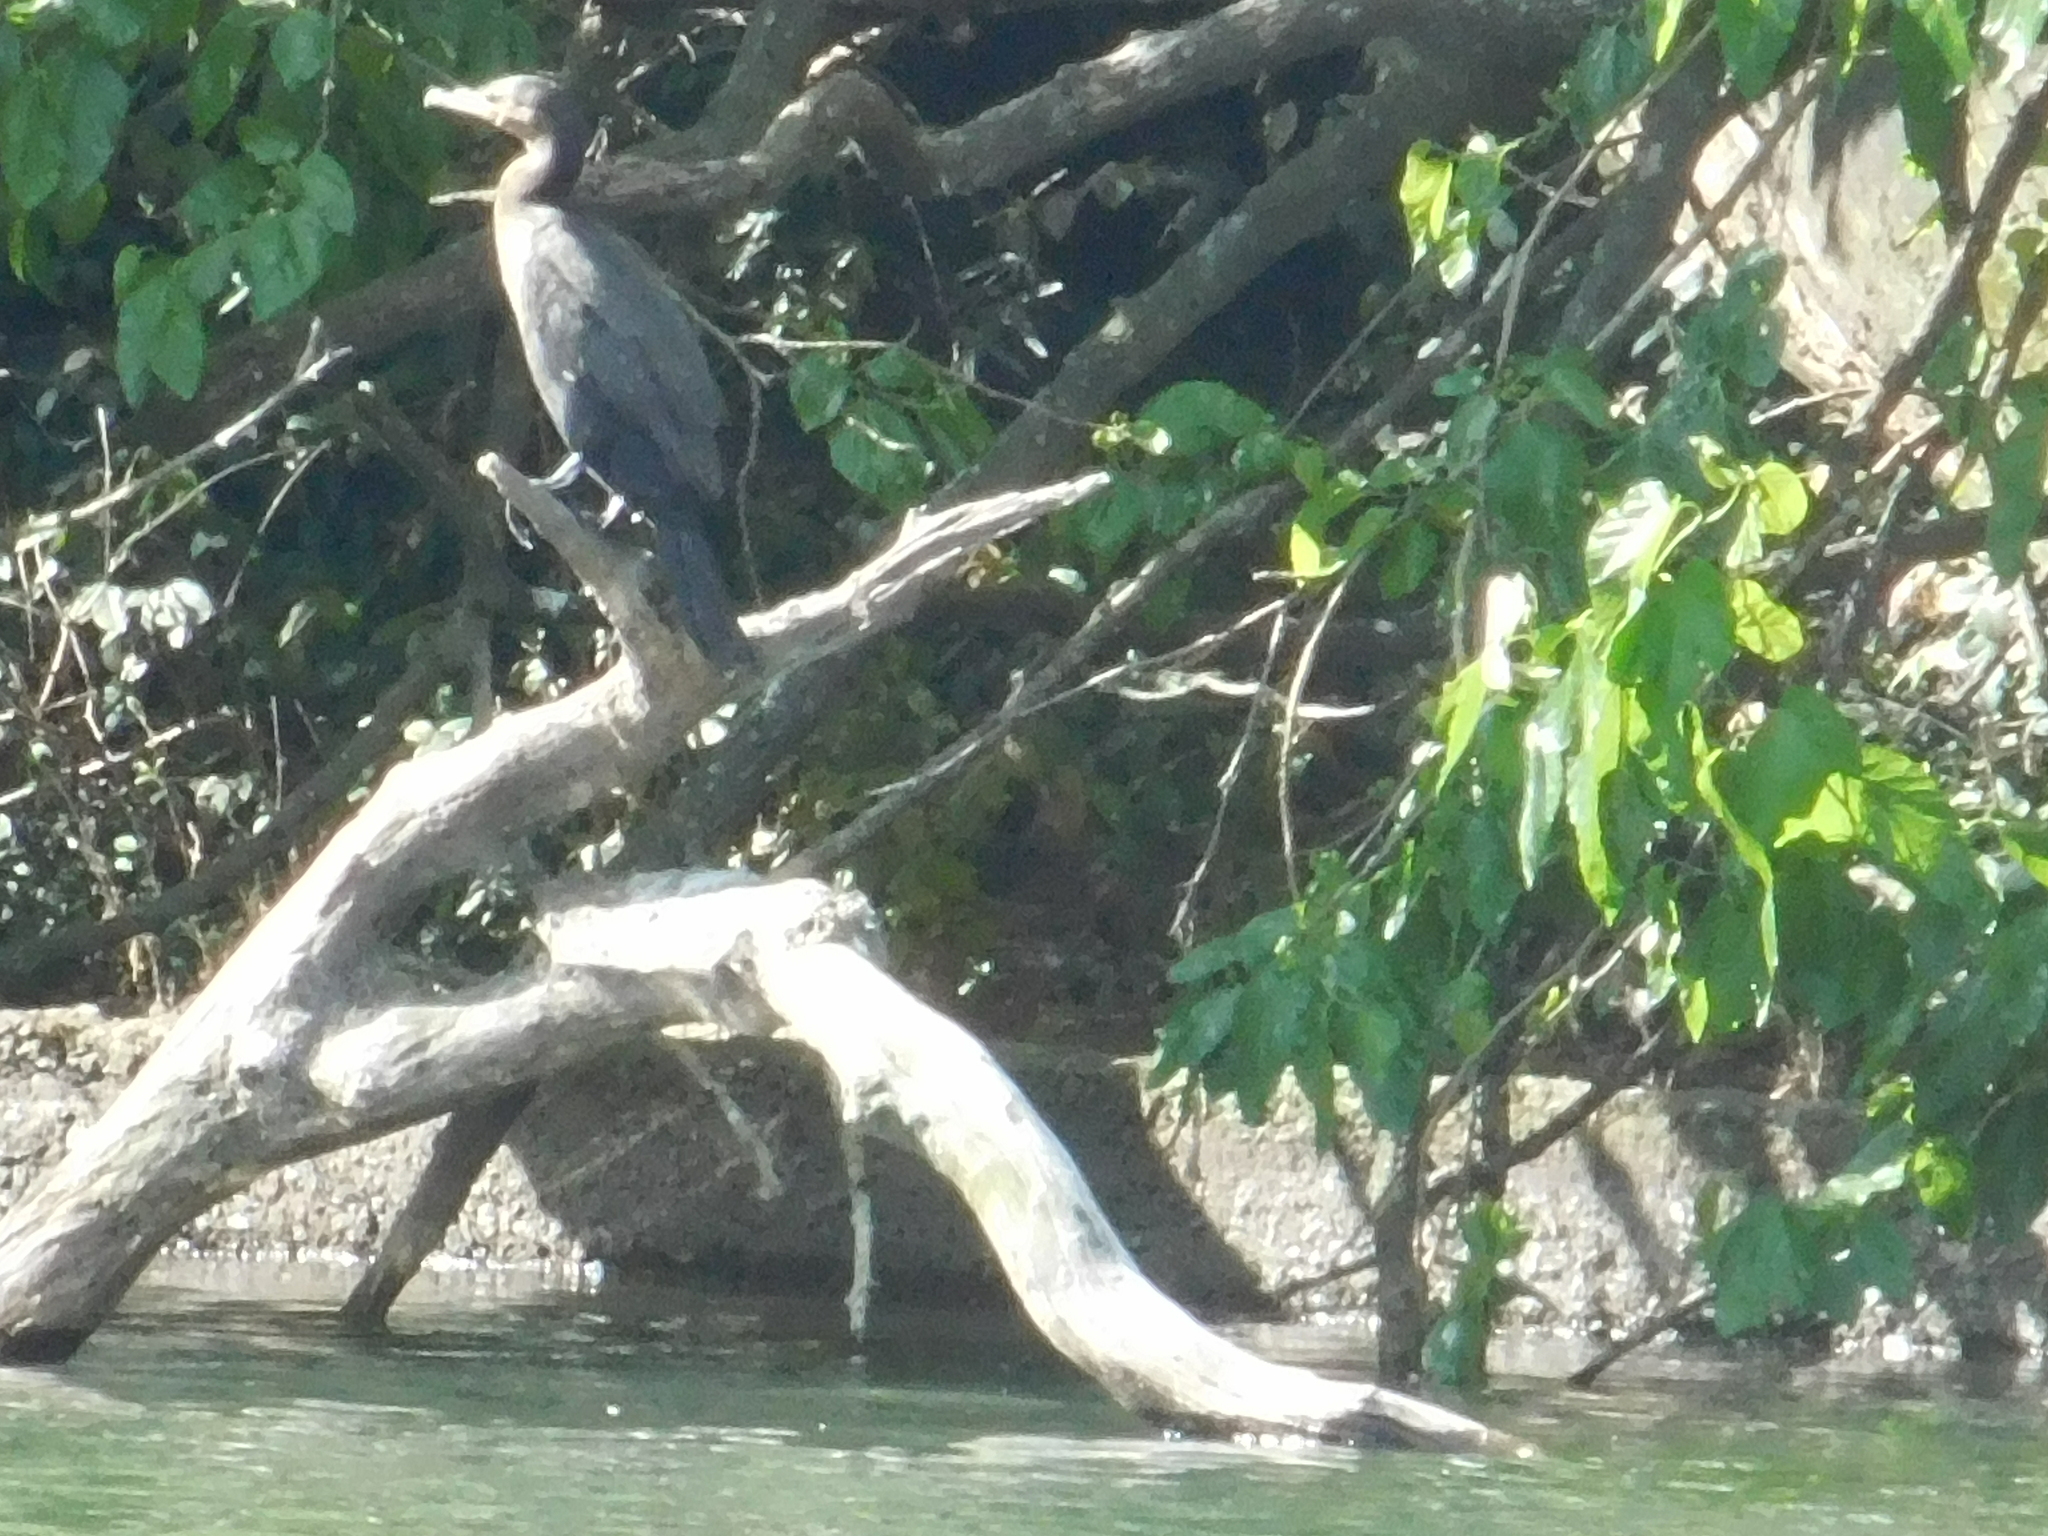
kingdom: Animalia
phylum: Chordata
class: Aves
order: Suliformes
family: Phalacrocoracidae
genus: Phalacrocorax
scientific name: Phalacrocorax brasilianus
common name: Neotropic cormorant
